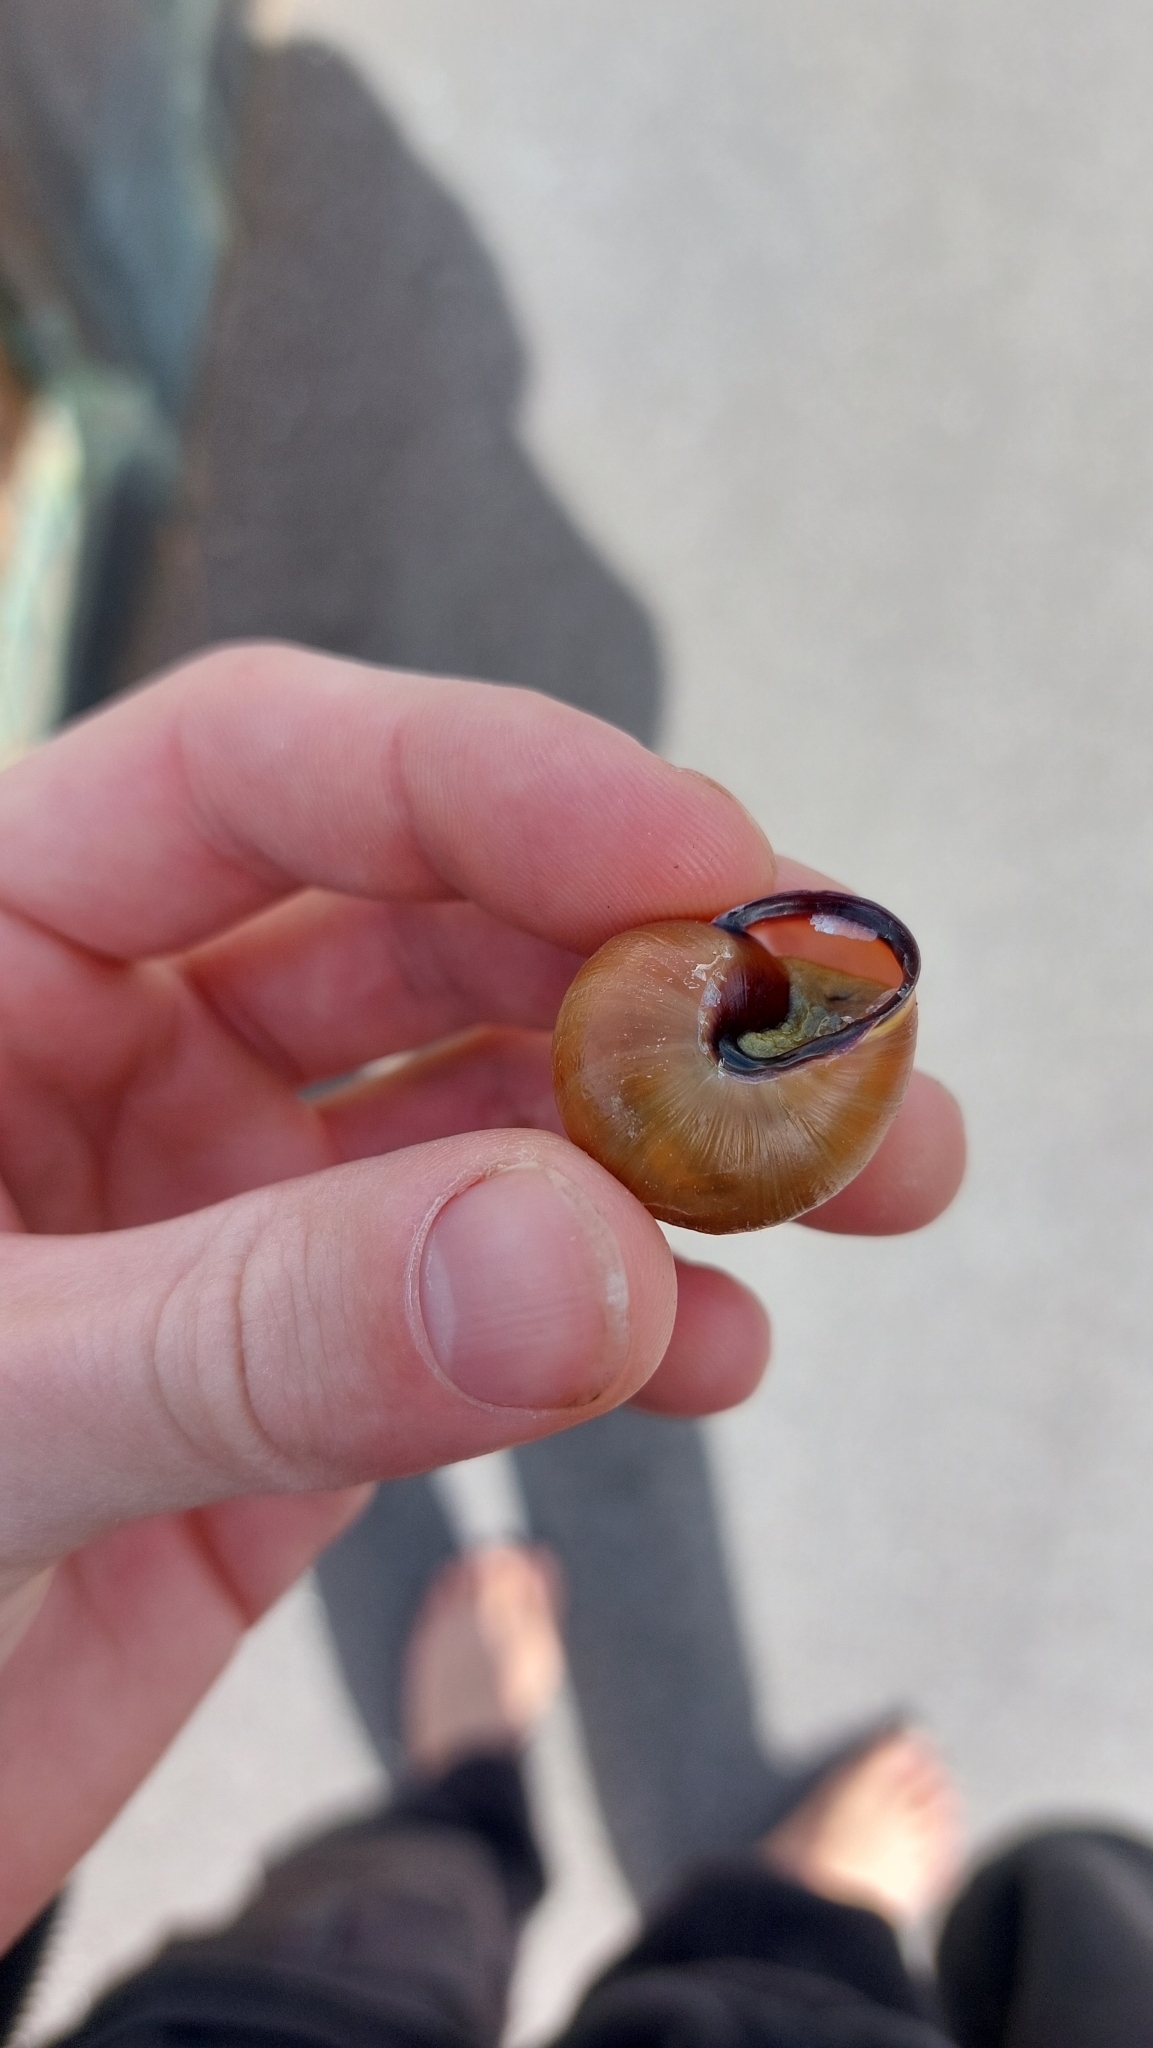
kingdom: Animalia
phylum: Mollusca
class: Gastropoda
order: Stylommatophora
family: Helicidae
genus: Cepaea
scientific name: Cepaea nemoralis
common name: Grovesnail
